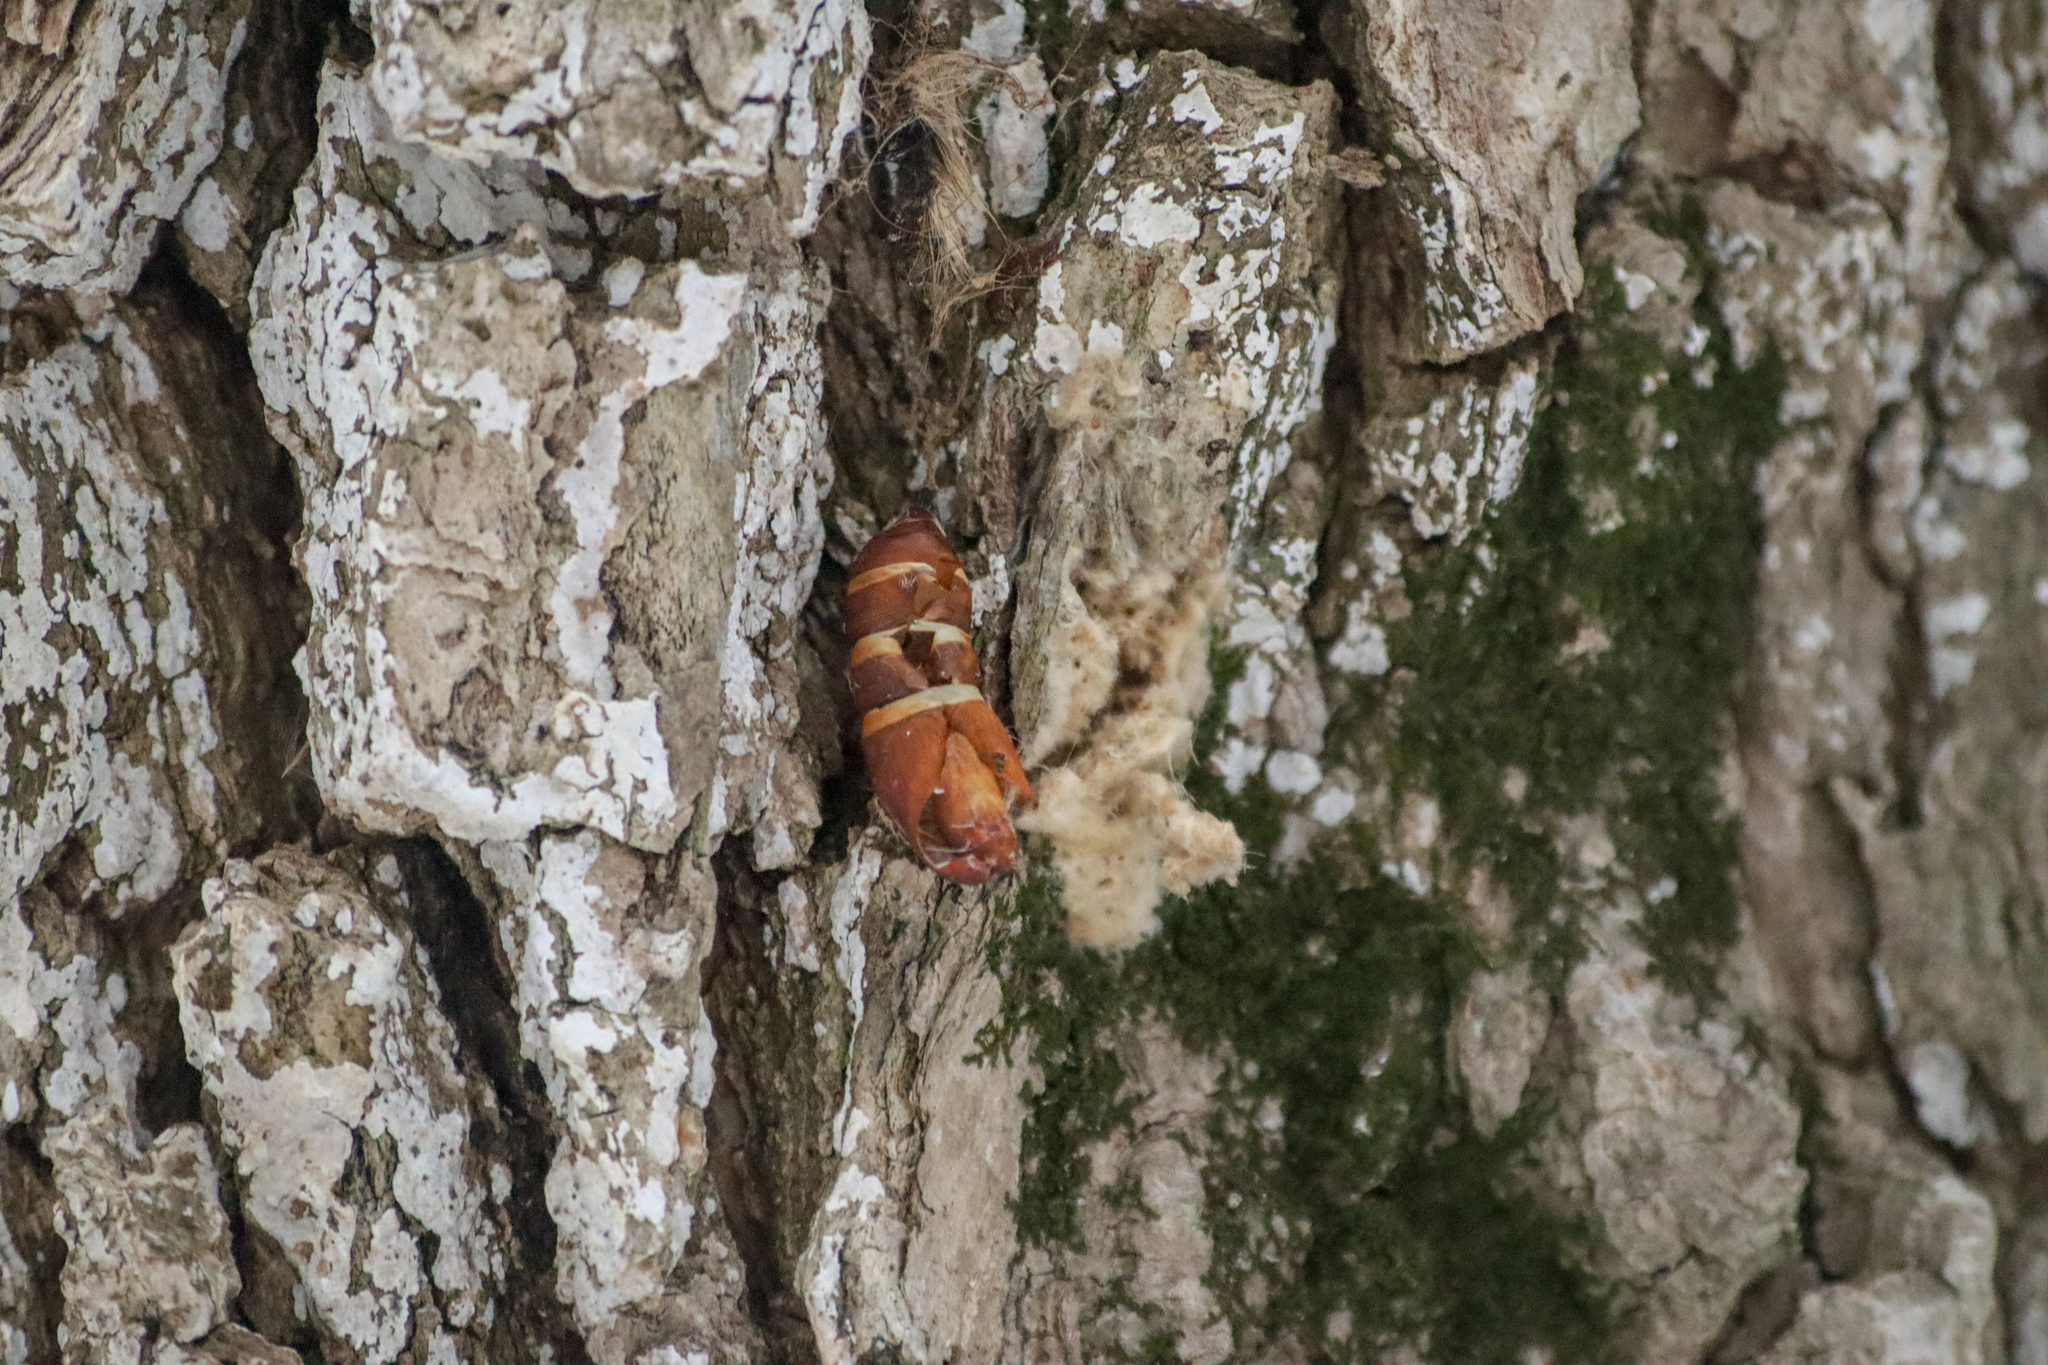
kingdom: Animalia
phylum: Arthropoda
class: Insecta
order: Lepidoptera
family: Erebidae
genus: Lymantria
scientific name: Lymantria dispar
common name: Gypsy moth
